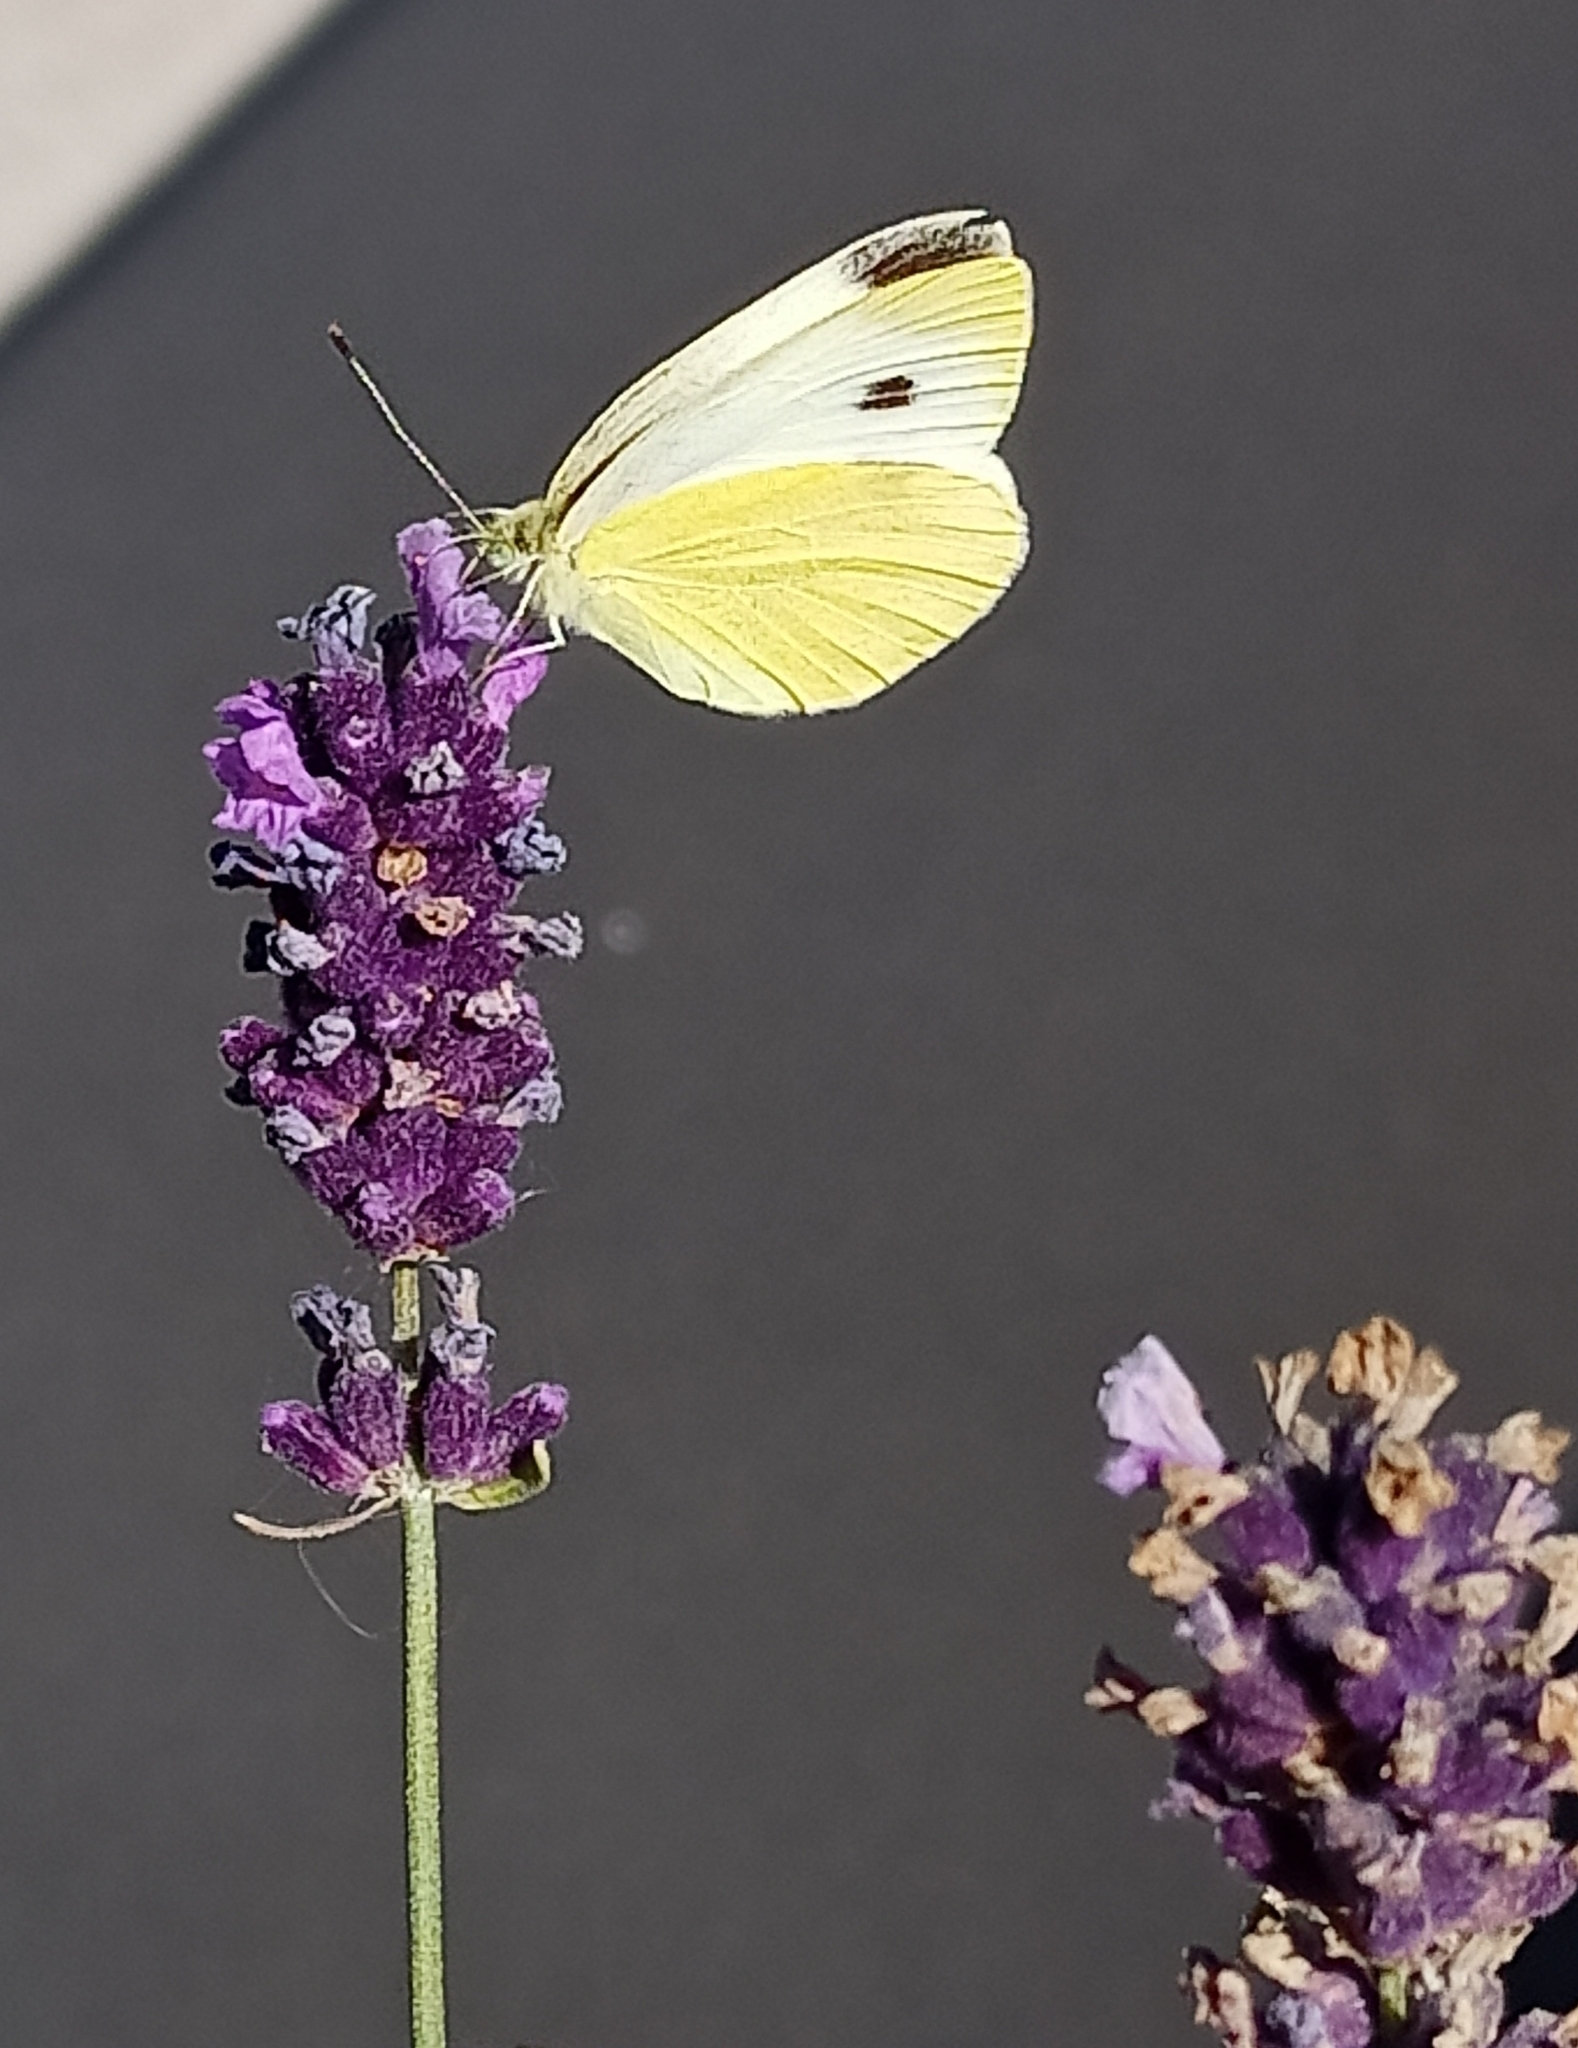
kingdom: Animalia
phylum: Arthropoda
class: Insecta
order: Lepidoptera
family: Pieridae
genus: Pieris
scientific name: Pieris rapae
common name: Small white
